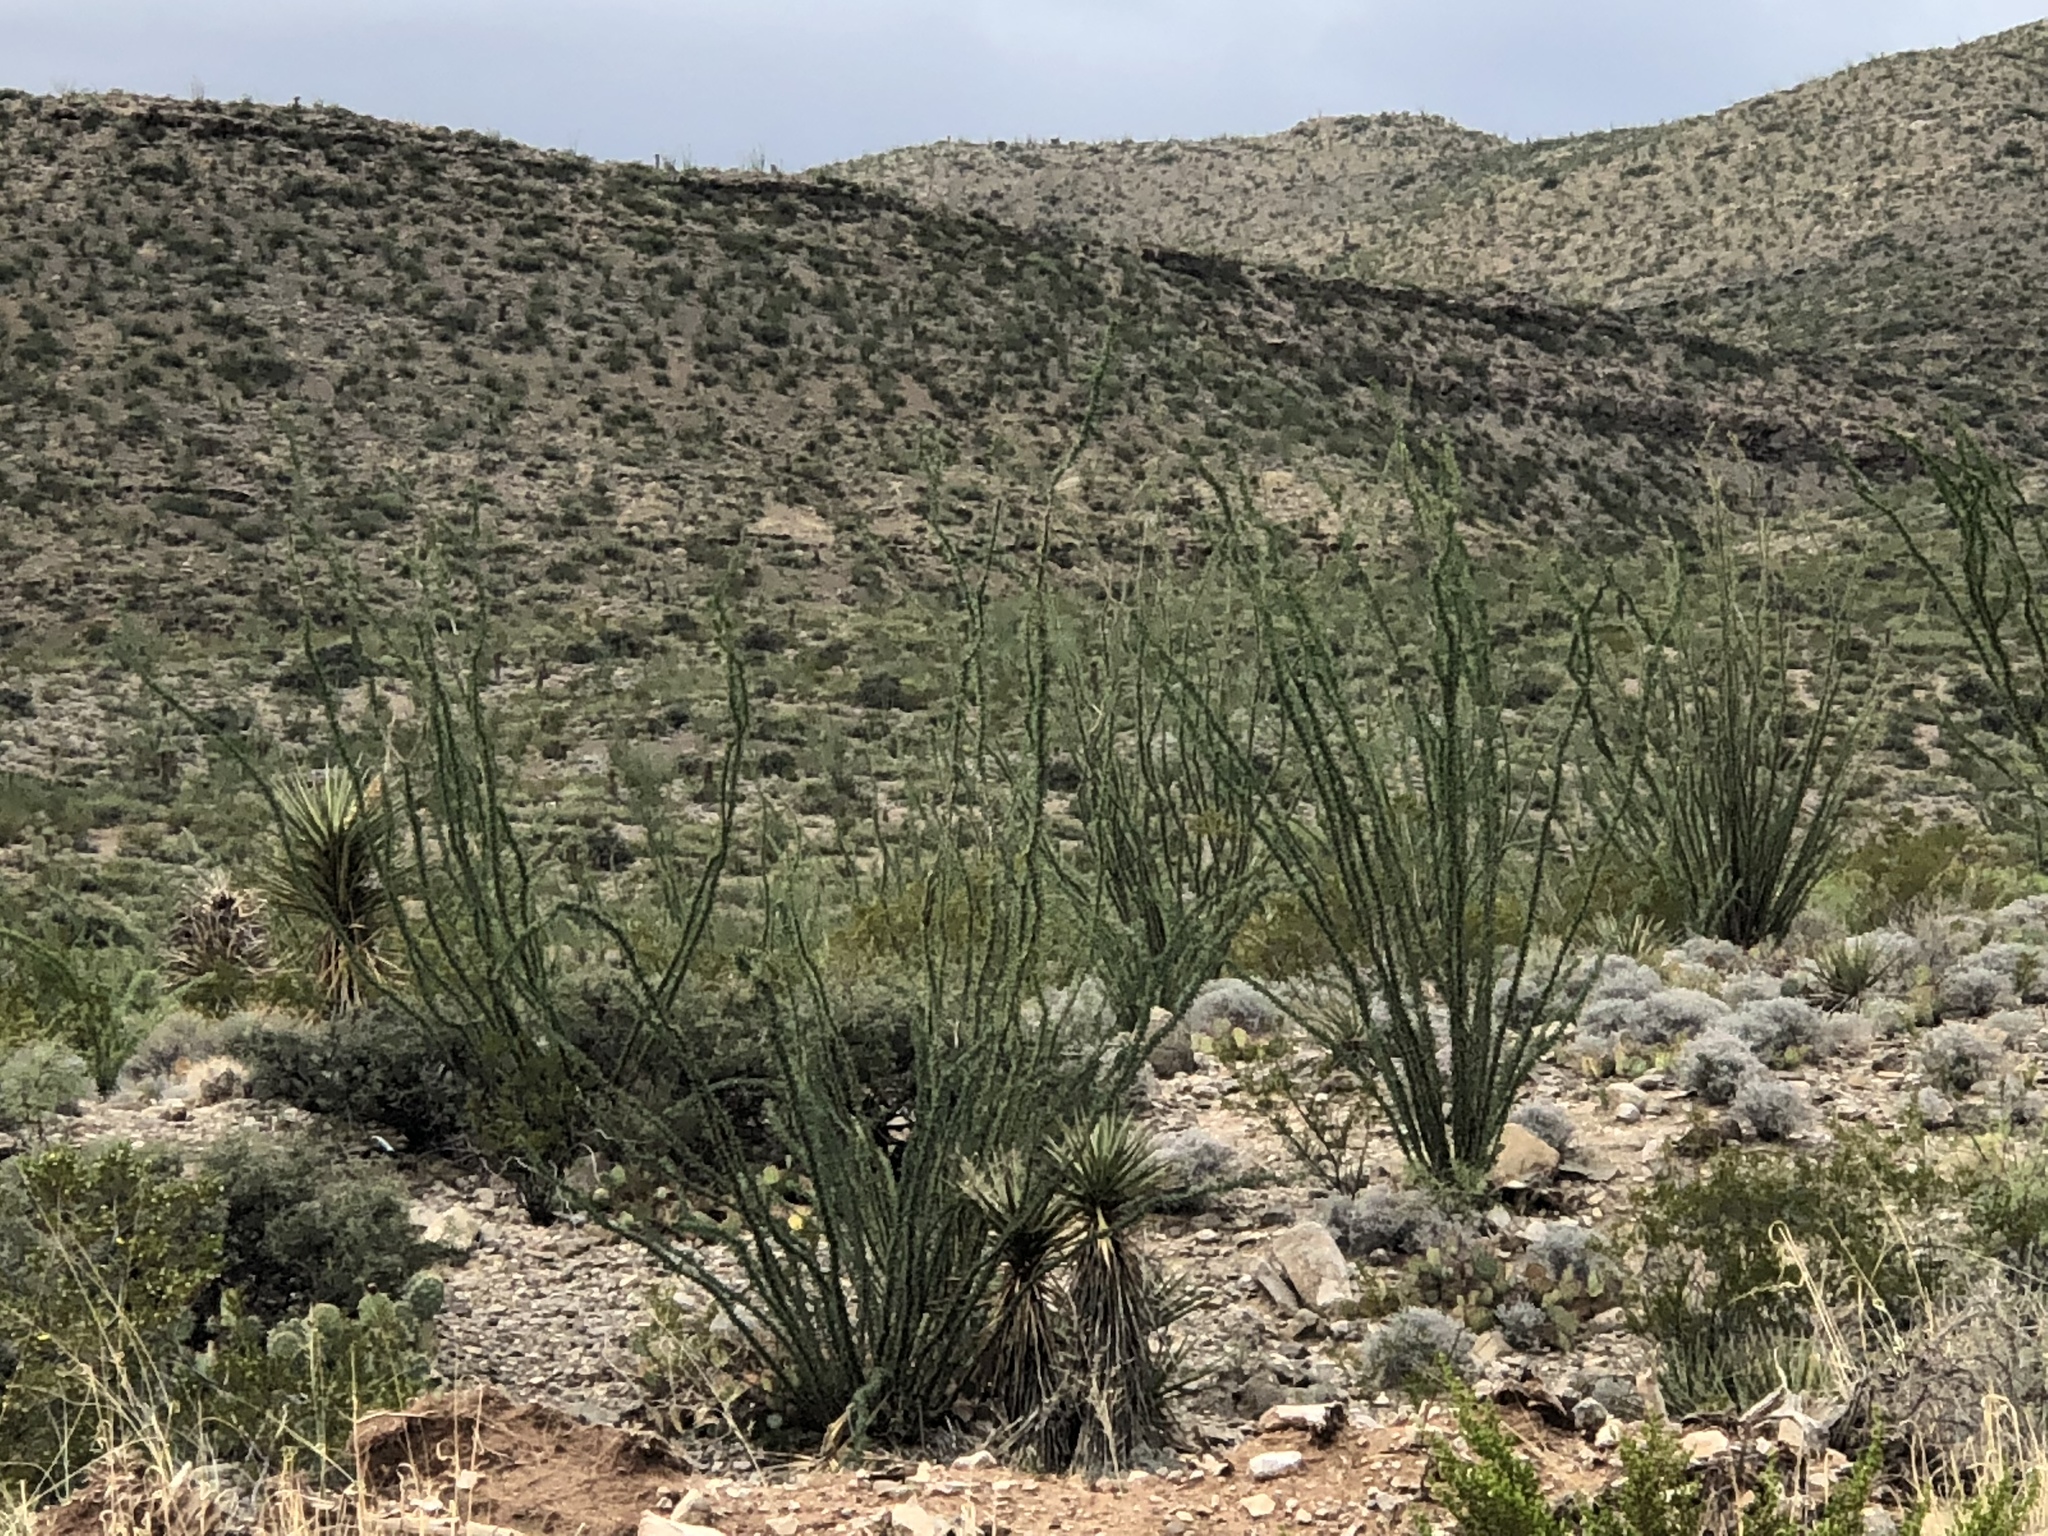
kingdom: Plantae
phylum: Tracheophyta
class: Magnoliopsida
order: Ericales
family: Fouquieriaceae
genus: Fouquieria
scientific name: Fouquieria splendens
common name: Vine-cactus
